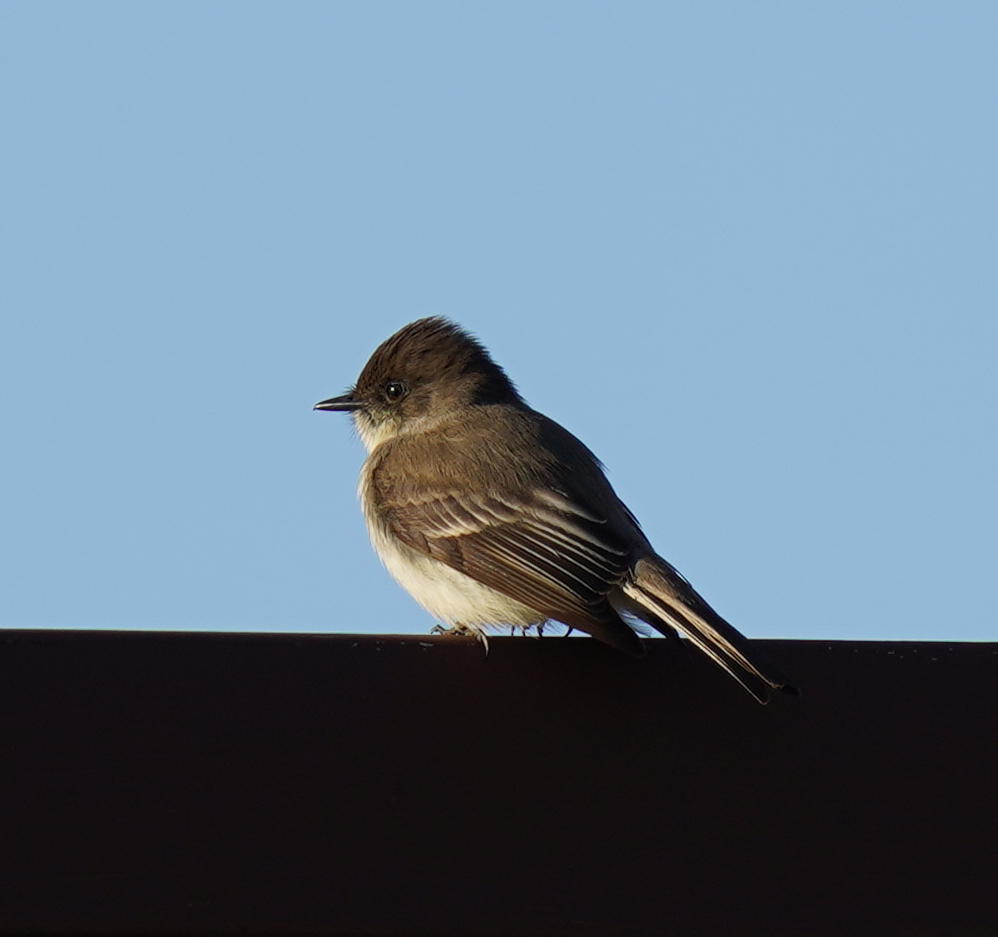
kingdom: Animalia
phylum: Chordata
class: Aves
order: Passeriformes
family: Tyrannidae
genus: Sayornis
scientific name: Sayornis phoebe
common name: Eastern phoebe
